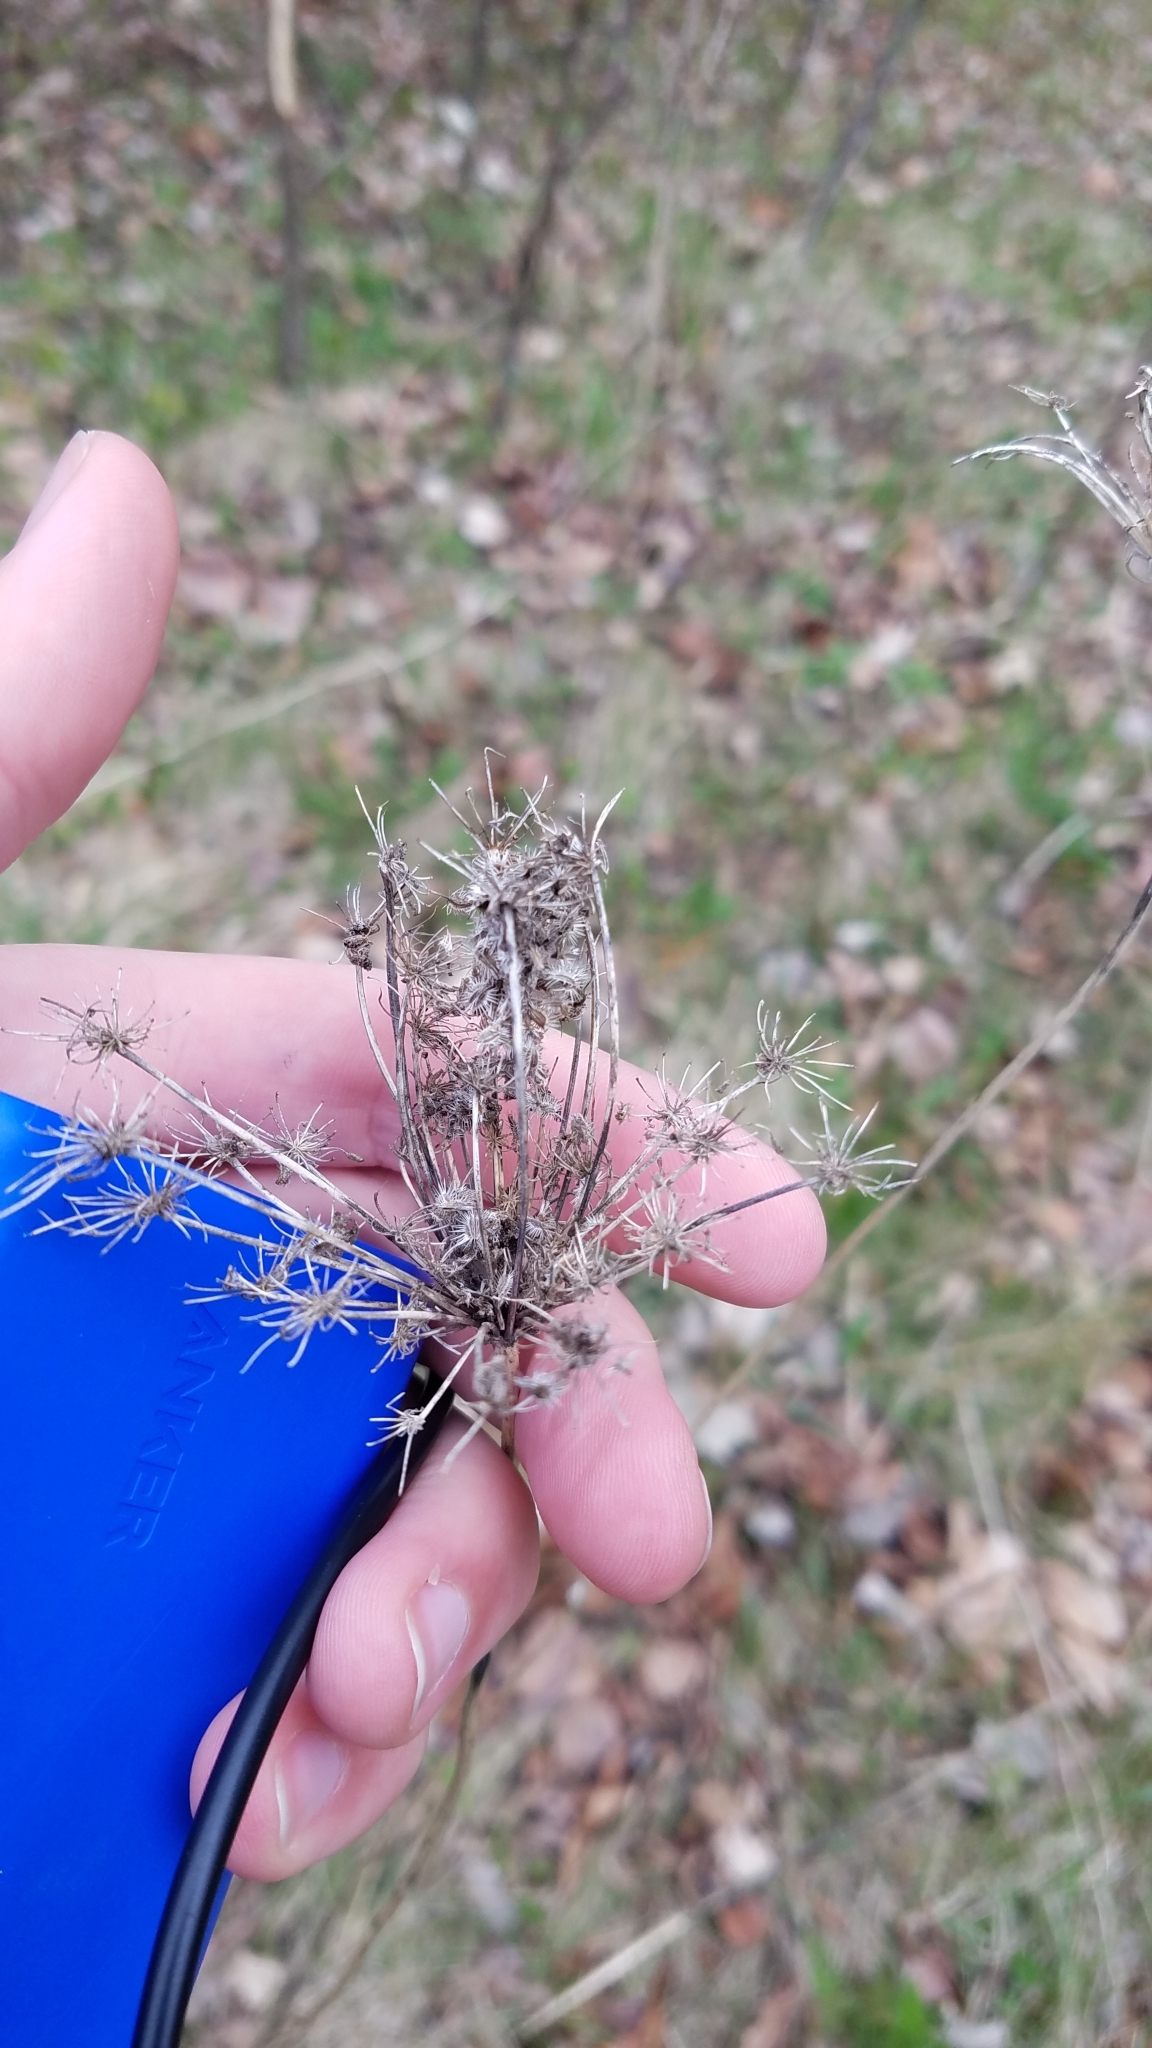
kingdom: Plantae
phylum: Tracheophyta
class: Magnoliopsida
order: Apiales
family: Apiaceae
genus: Daucus
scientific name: Daucus carota
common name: Wild carrot
